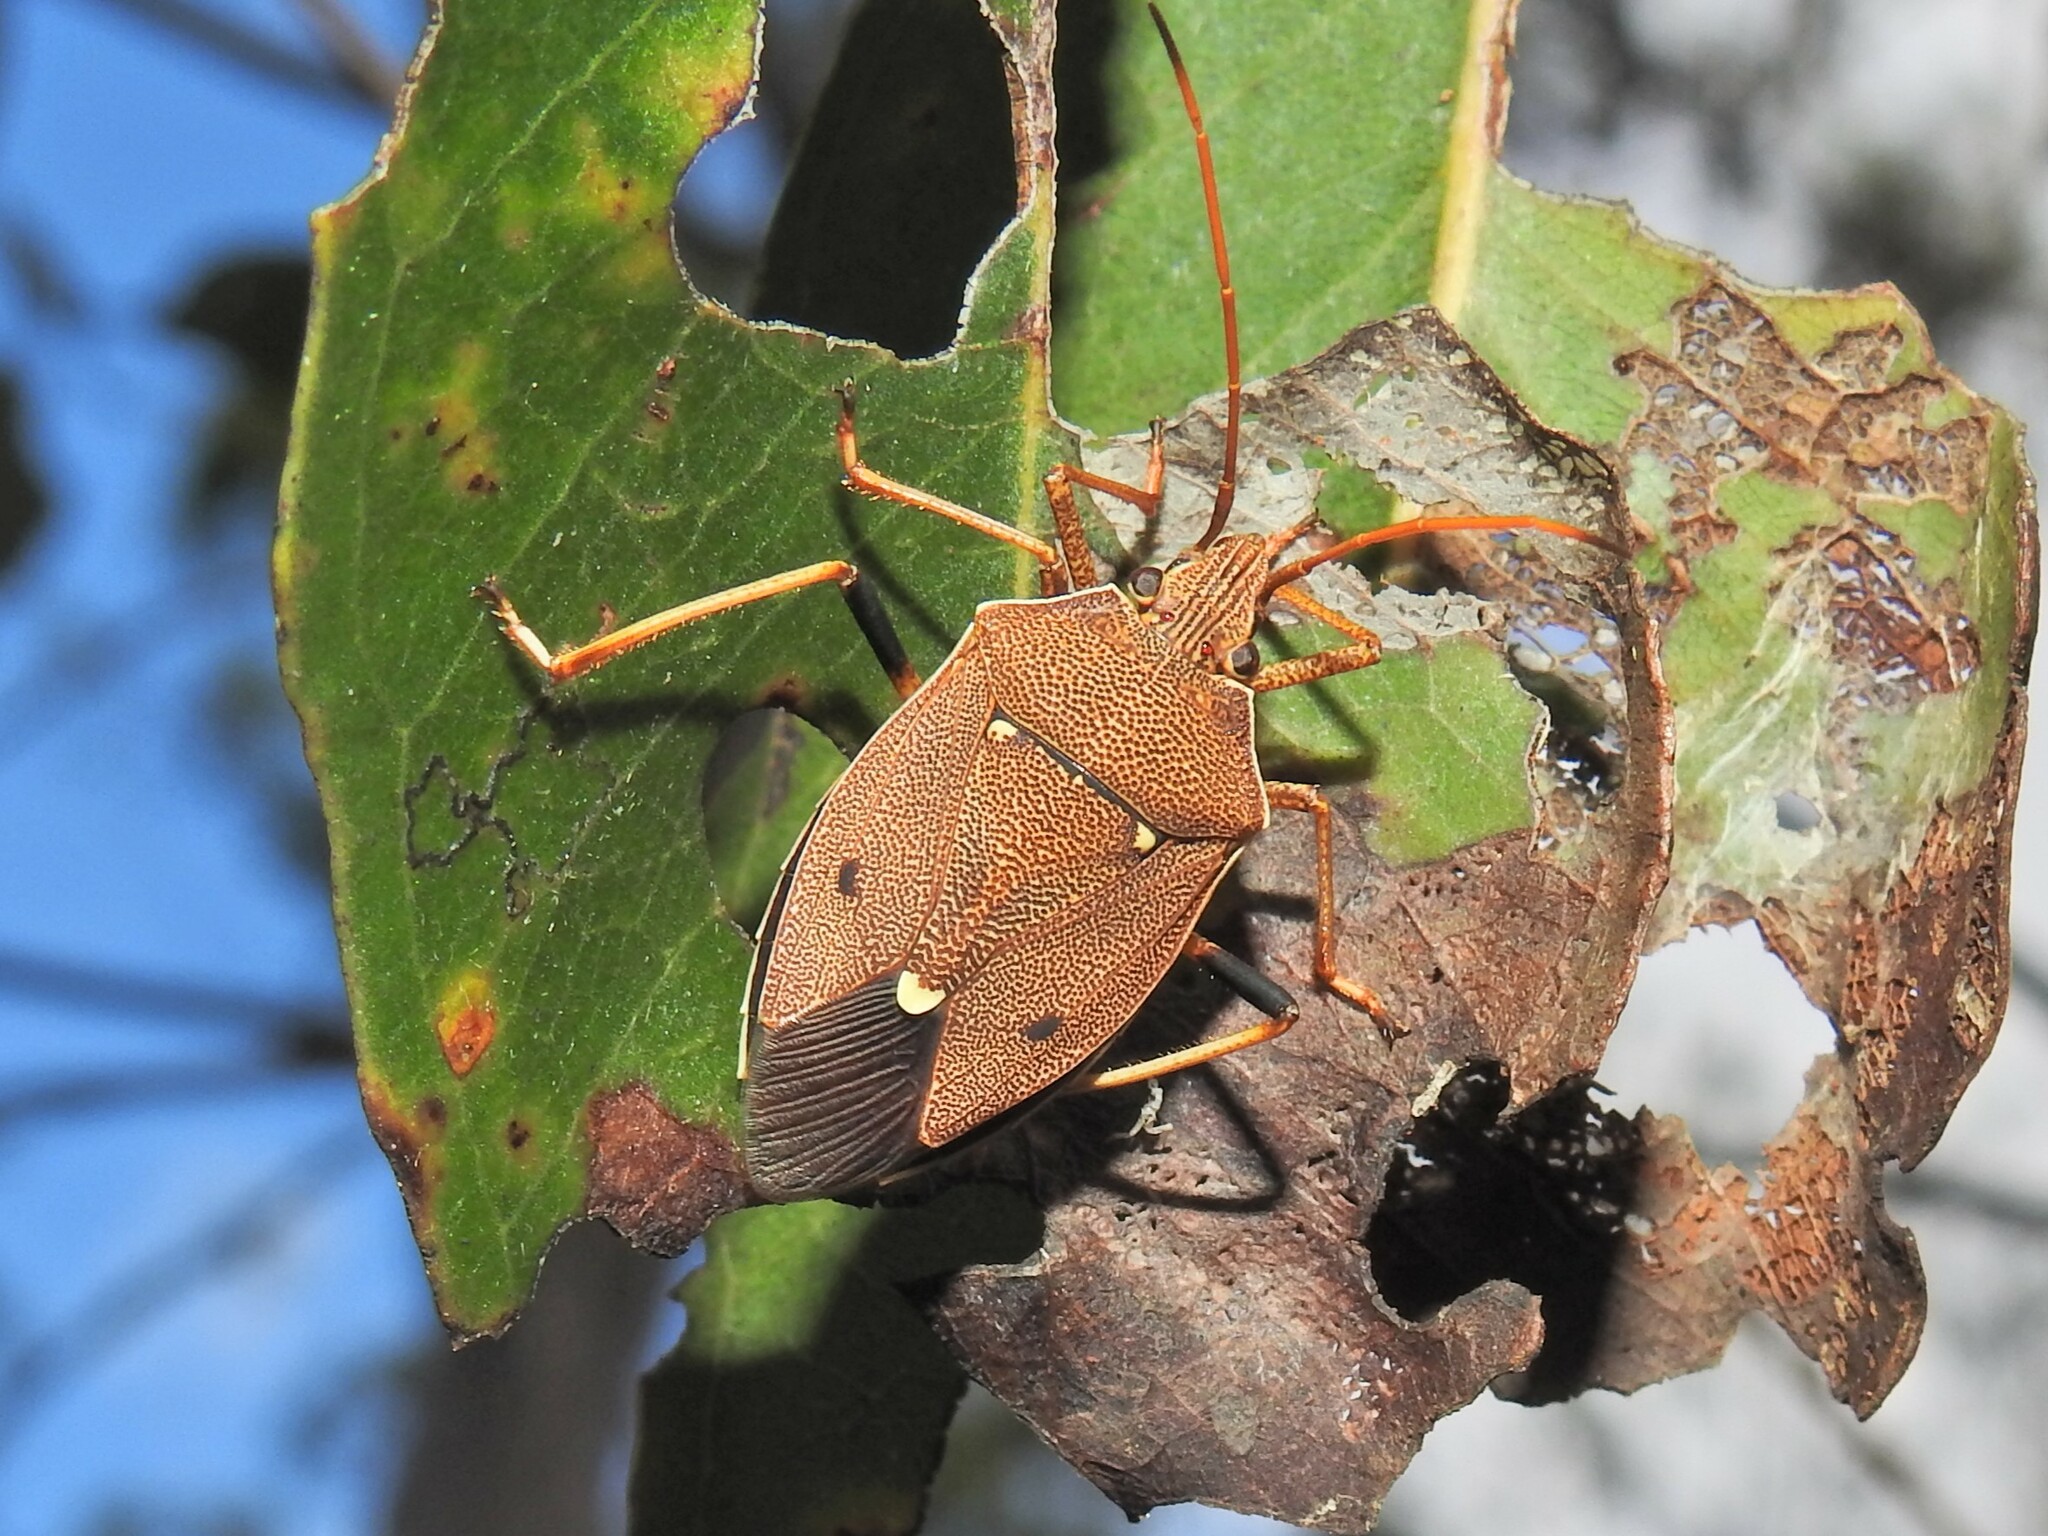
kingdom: Animalia
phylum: Arthropoda
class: Insecta
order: Hemiptera
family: Pentatomidae
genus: Poecilometis
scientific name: Poecilometis
